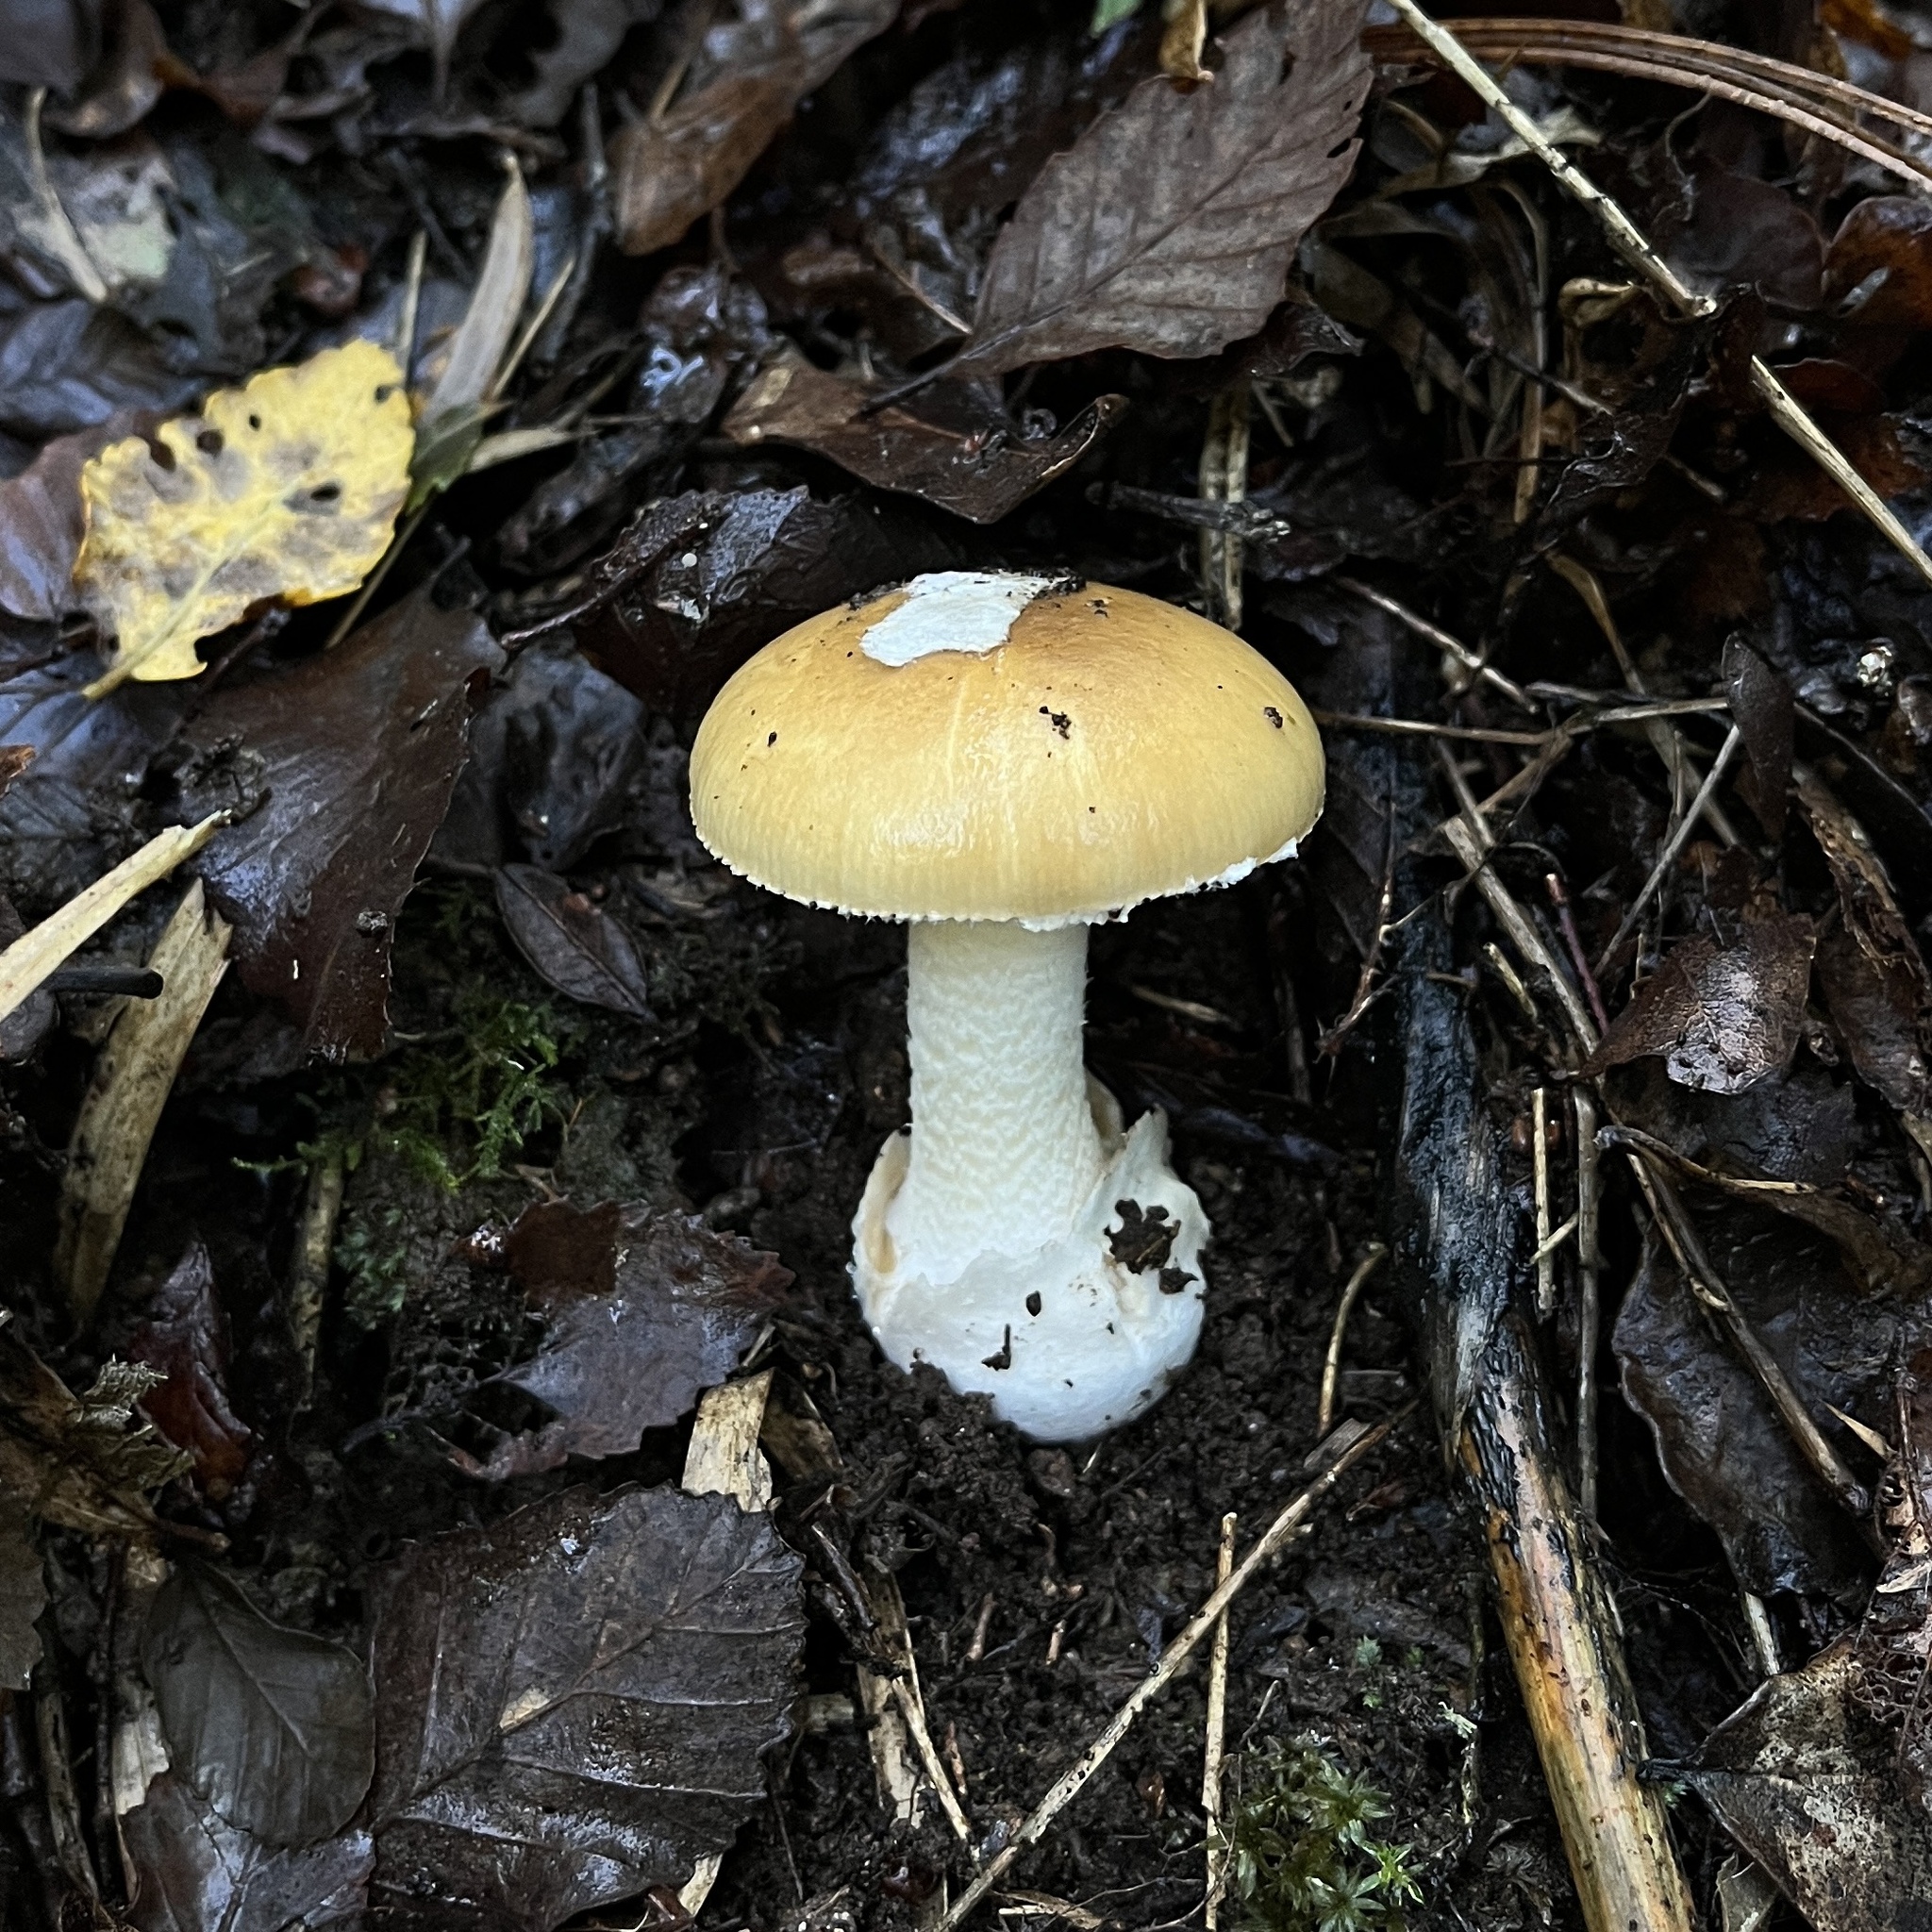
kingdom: Fungi
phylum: Basidiomycota
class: Agaricomycetes
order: Agaricales
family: Amanitaceae
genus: Amanita
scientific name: Amanita diemii
